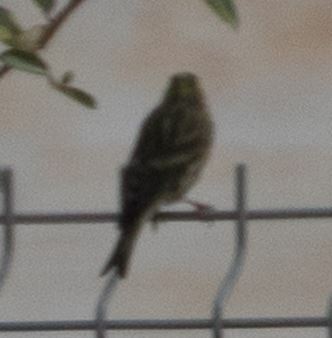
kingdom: Animalia
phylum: Chordata
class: Aves
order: Passeriformes
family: Fringillidae
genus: Serinus
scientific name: Serinus serinus
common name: European serin
